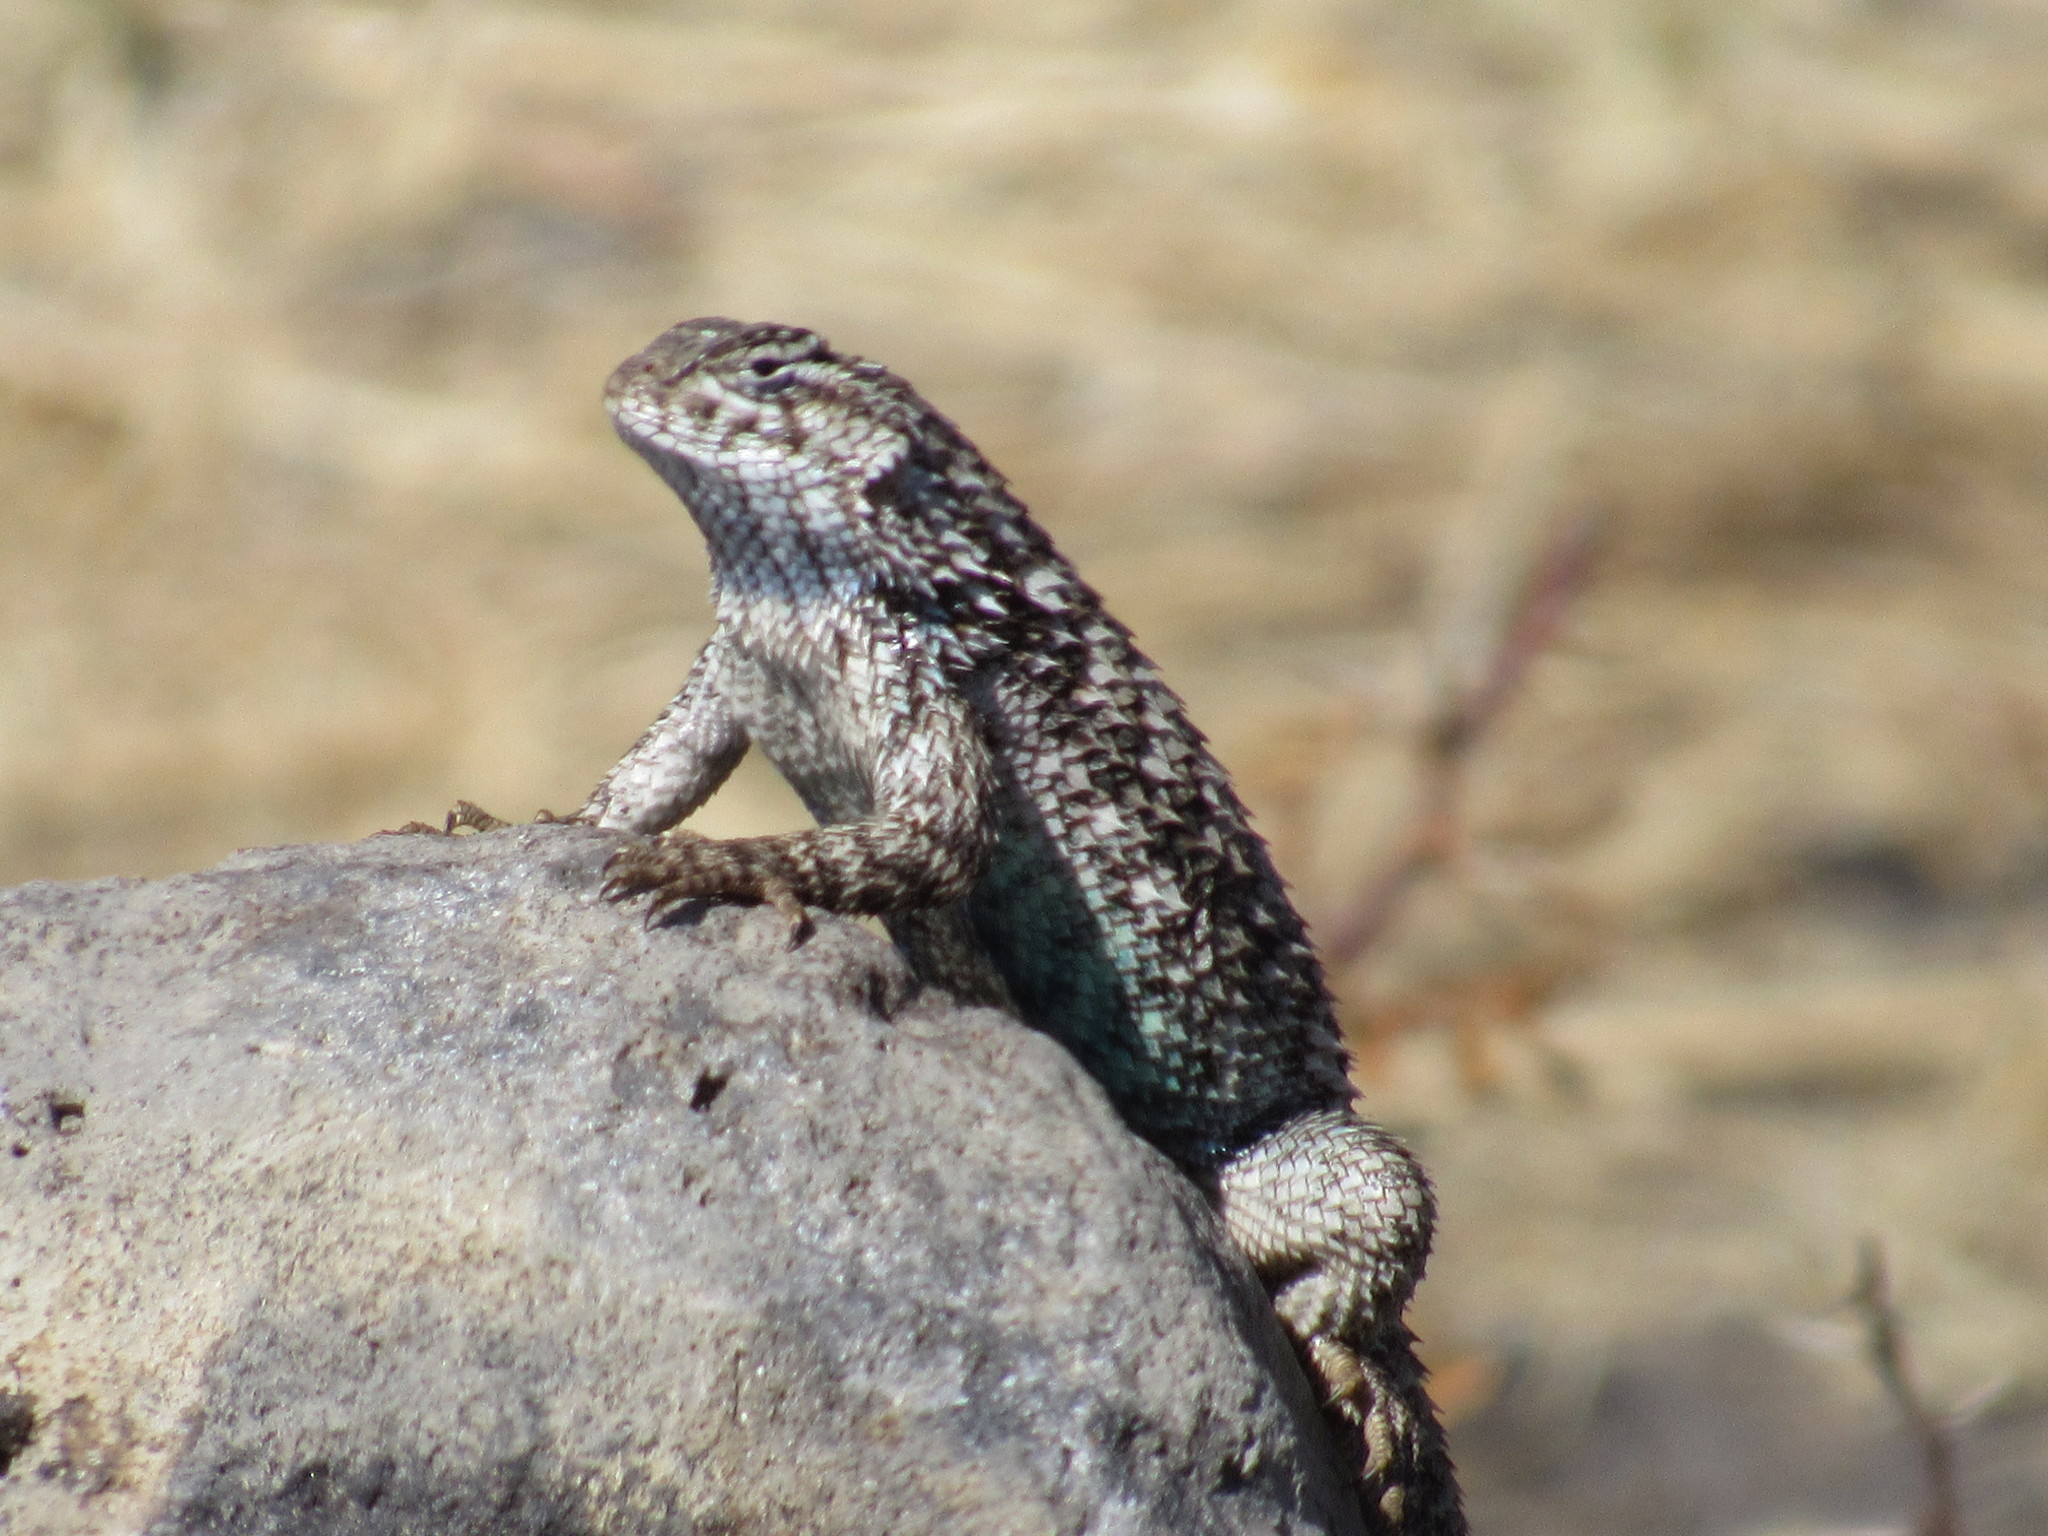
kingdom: Animalia
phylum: Chordata
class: Squamata
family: Phrynosomatidae
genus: Sceloporus
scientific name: Sceloporus spinosus
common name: Blue-spotted spiny lizard [caeruleopunctatus]
